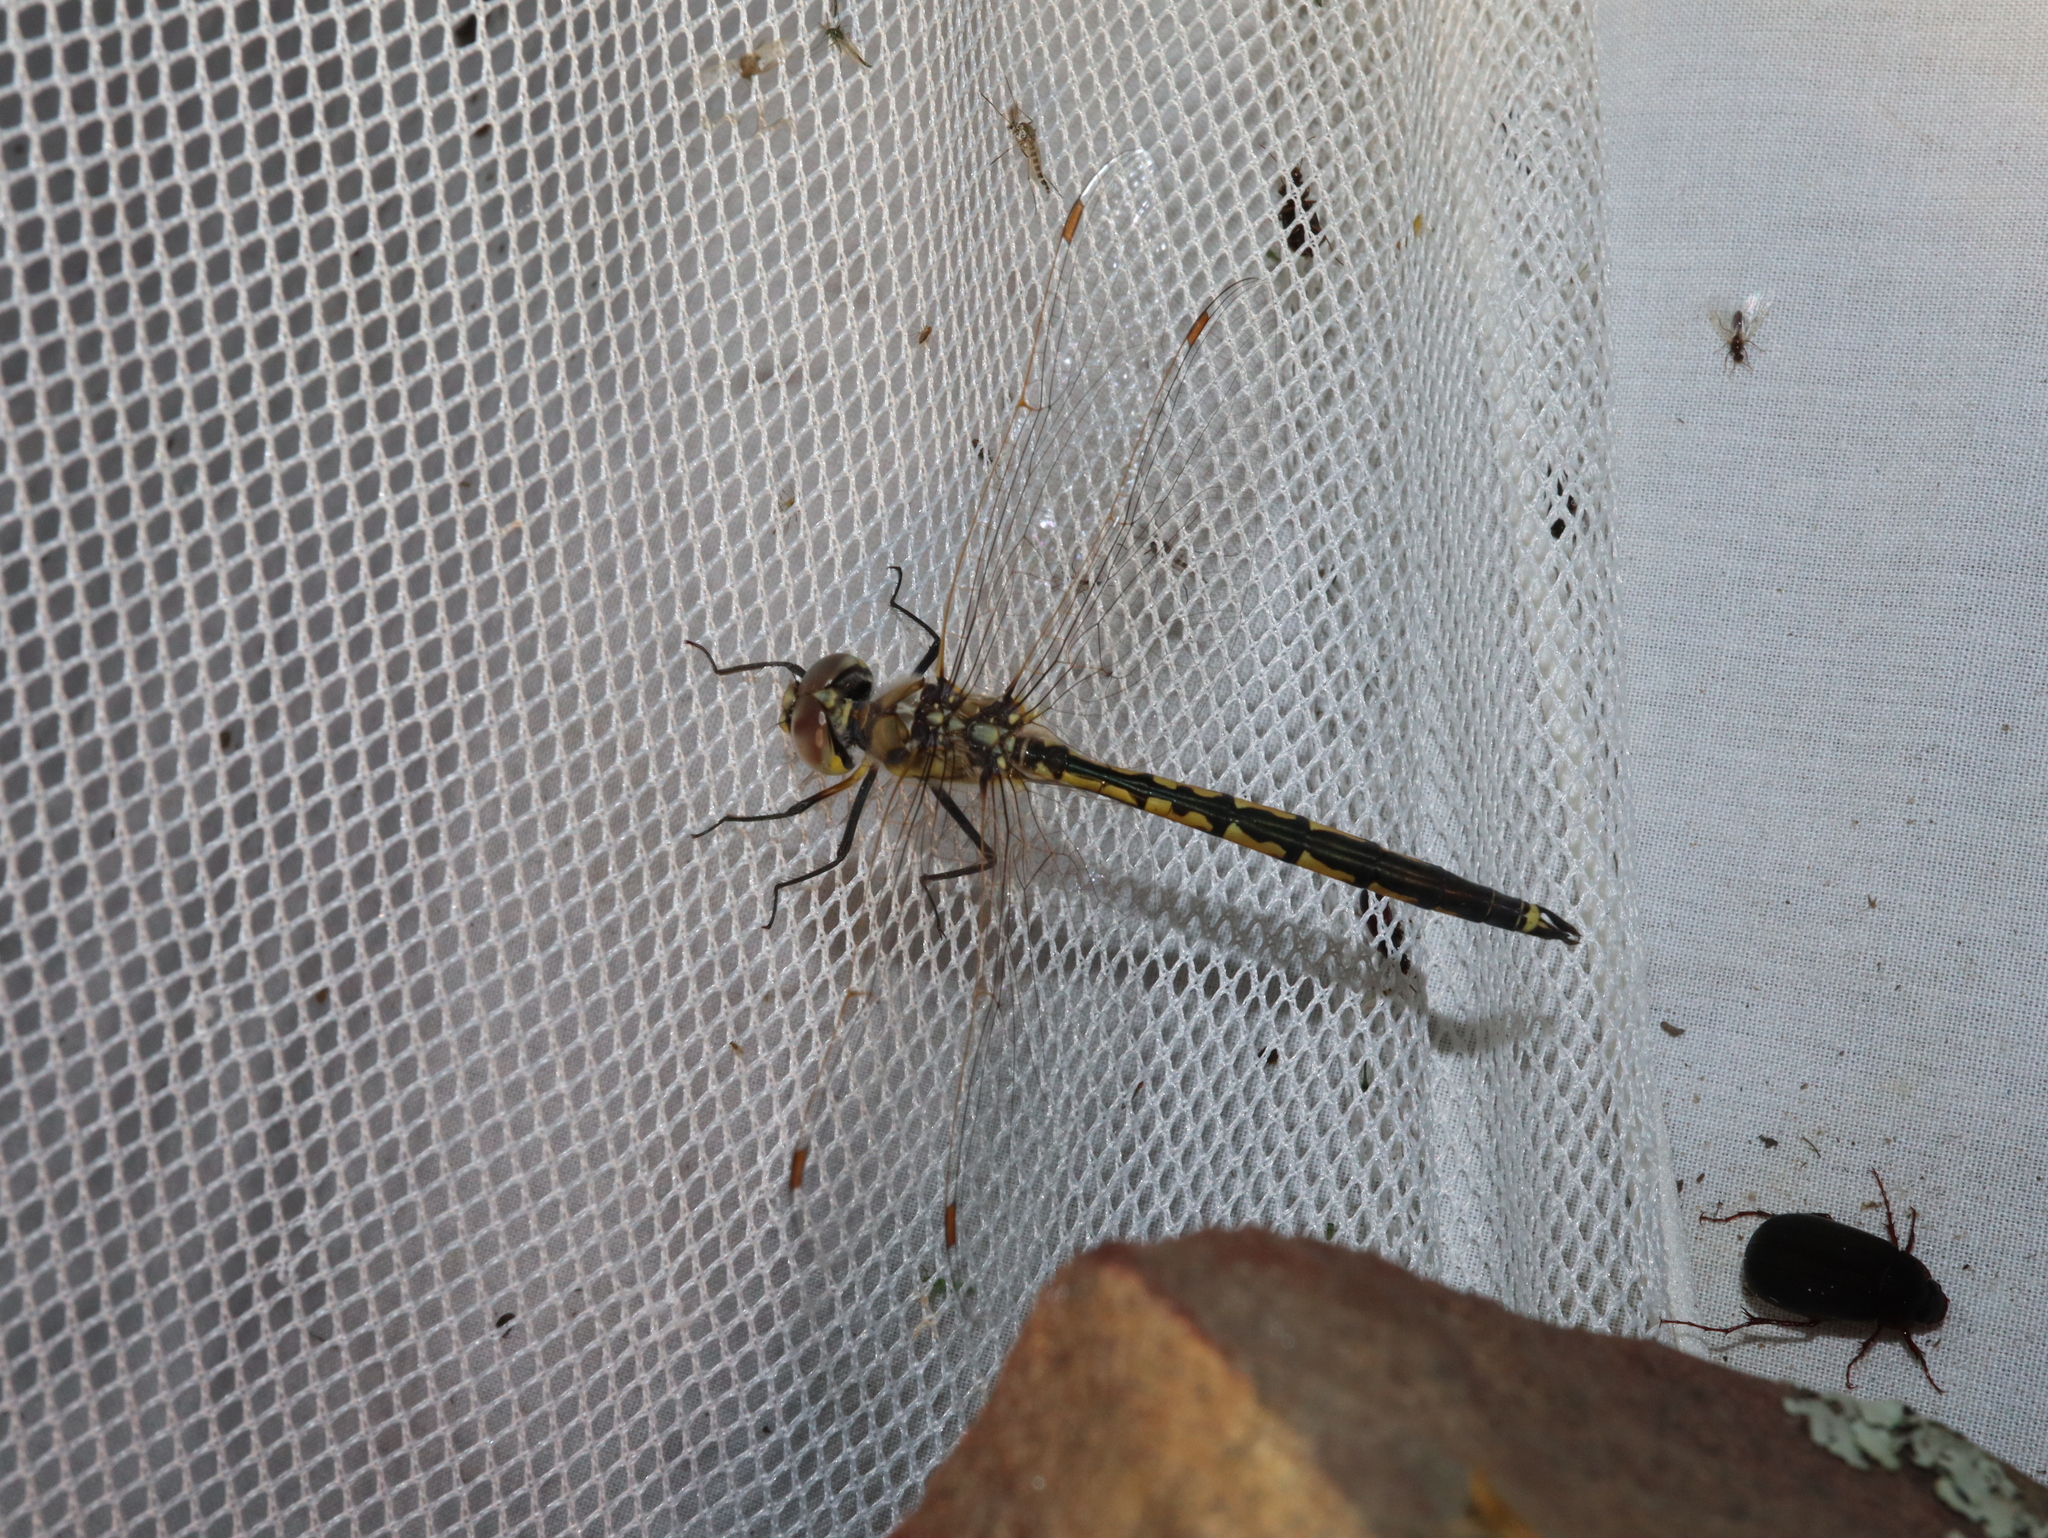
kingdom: Animalia
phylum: Arthropoda
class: Insecta
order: Odonata
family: Corduliidae
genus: Hemicordulia
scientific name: Hemicordulia tau
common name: Tau emerald
